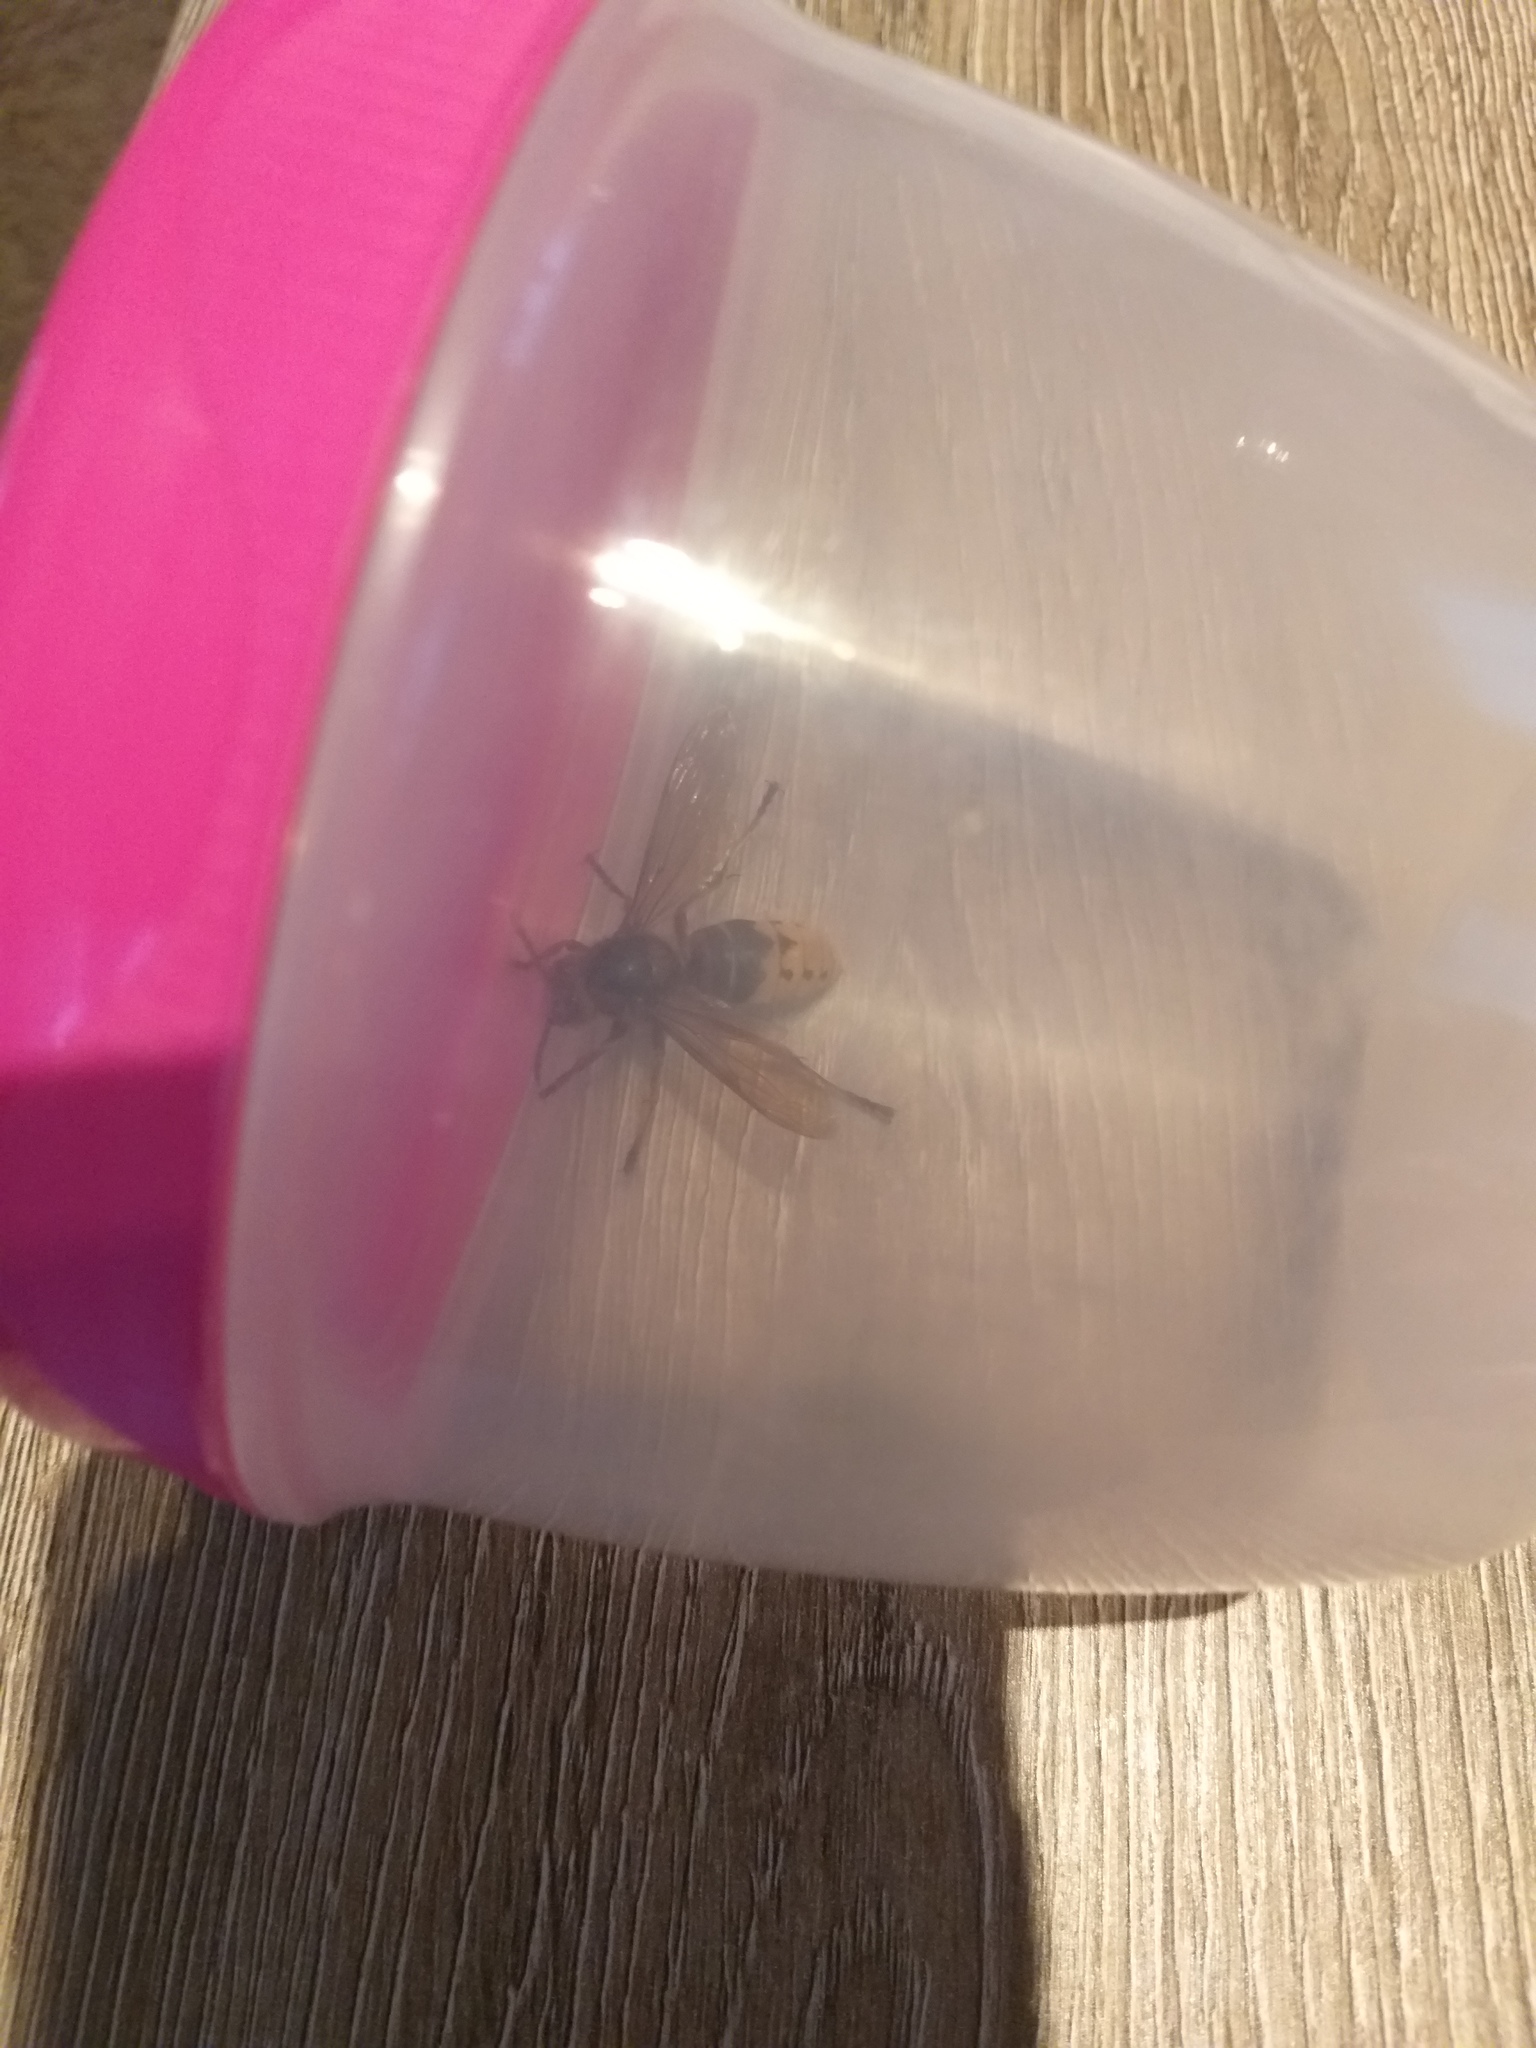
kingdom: Animalia
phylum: Arthropoda
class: Insecta
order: Hymenoptera
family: Vespidae
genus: Vespa
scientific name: Vespa crabro
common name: Hornet
